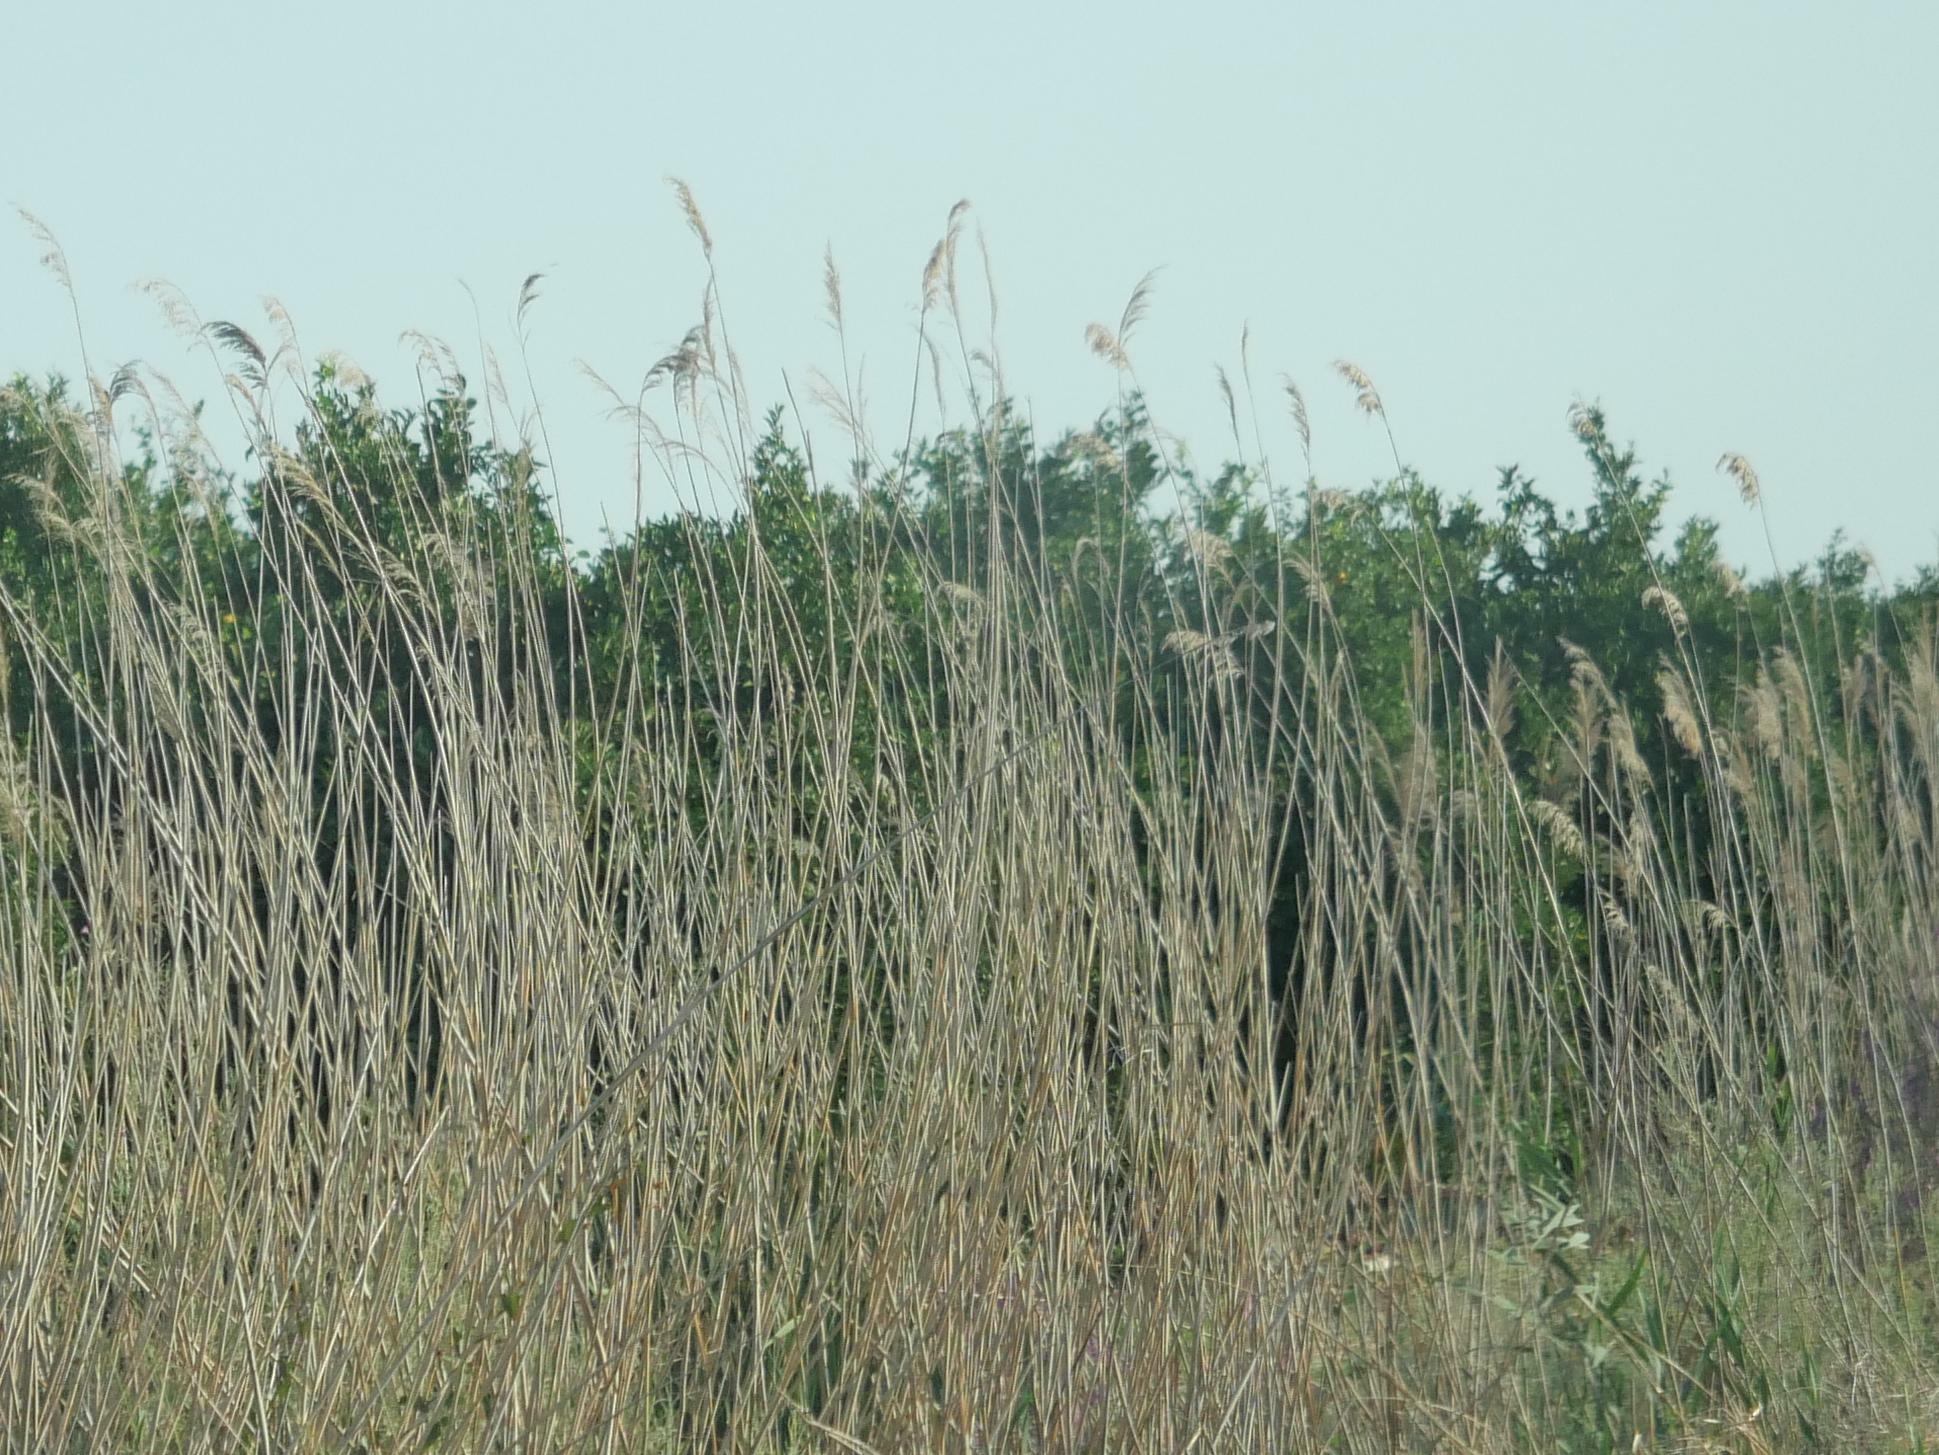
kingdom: Plantae
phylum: Tracheophyta
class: Liliopsida
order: Poales
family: Poaceae
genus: Phragmites
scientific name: Phragmites australis
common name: Common reed
